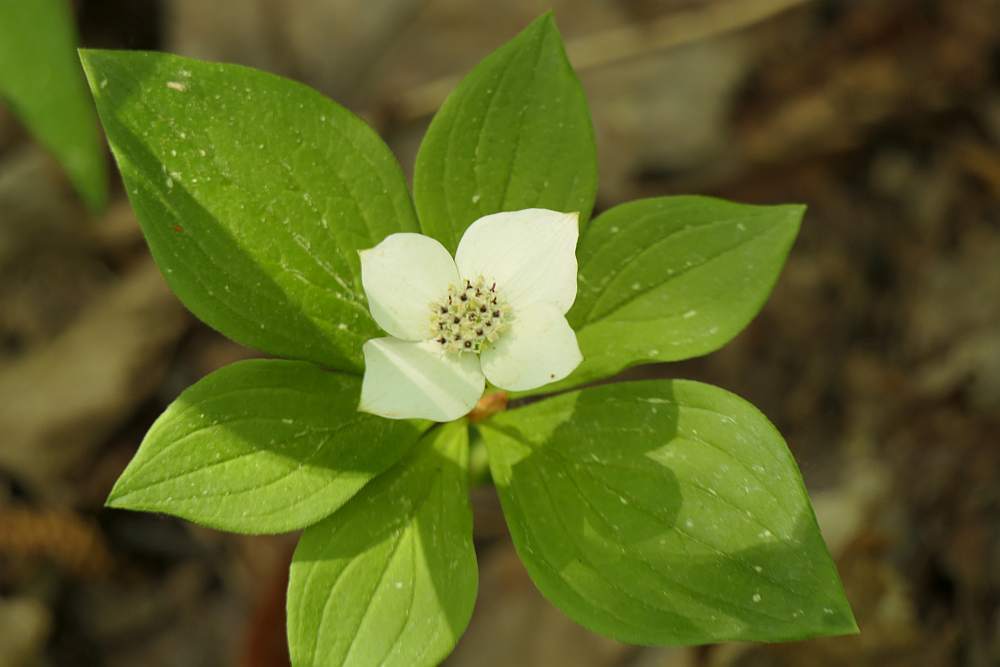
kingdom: Plantae
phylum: Tracheophyta
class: Magnoliopsida
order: Cornales
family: Cornaceae
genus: Cornus
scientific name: Cornus canadensis
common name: Creeping dogwood
